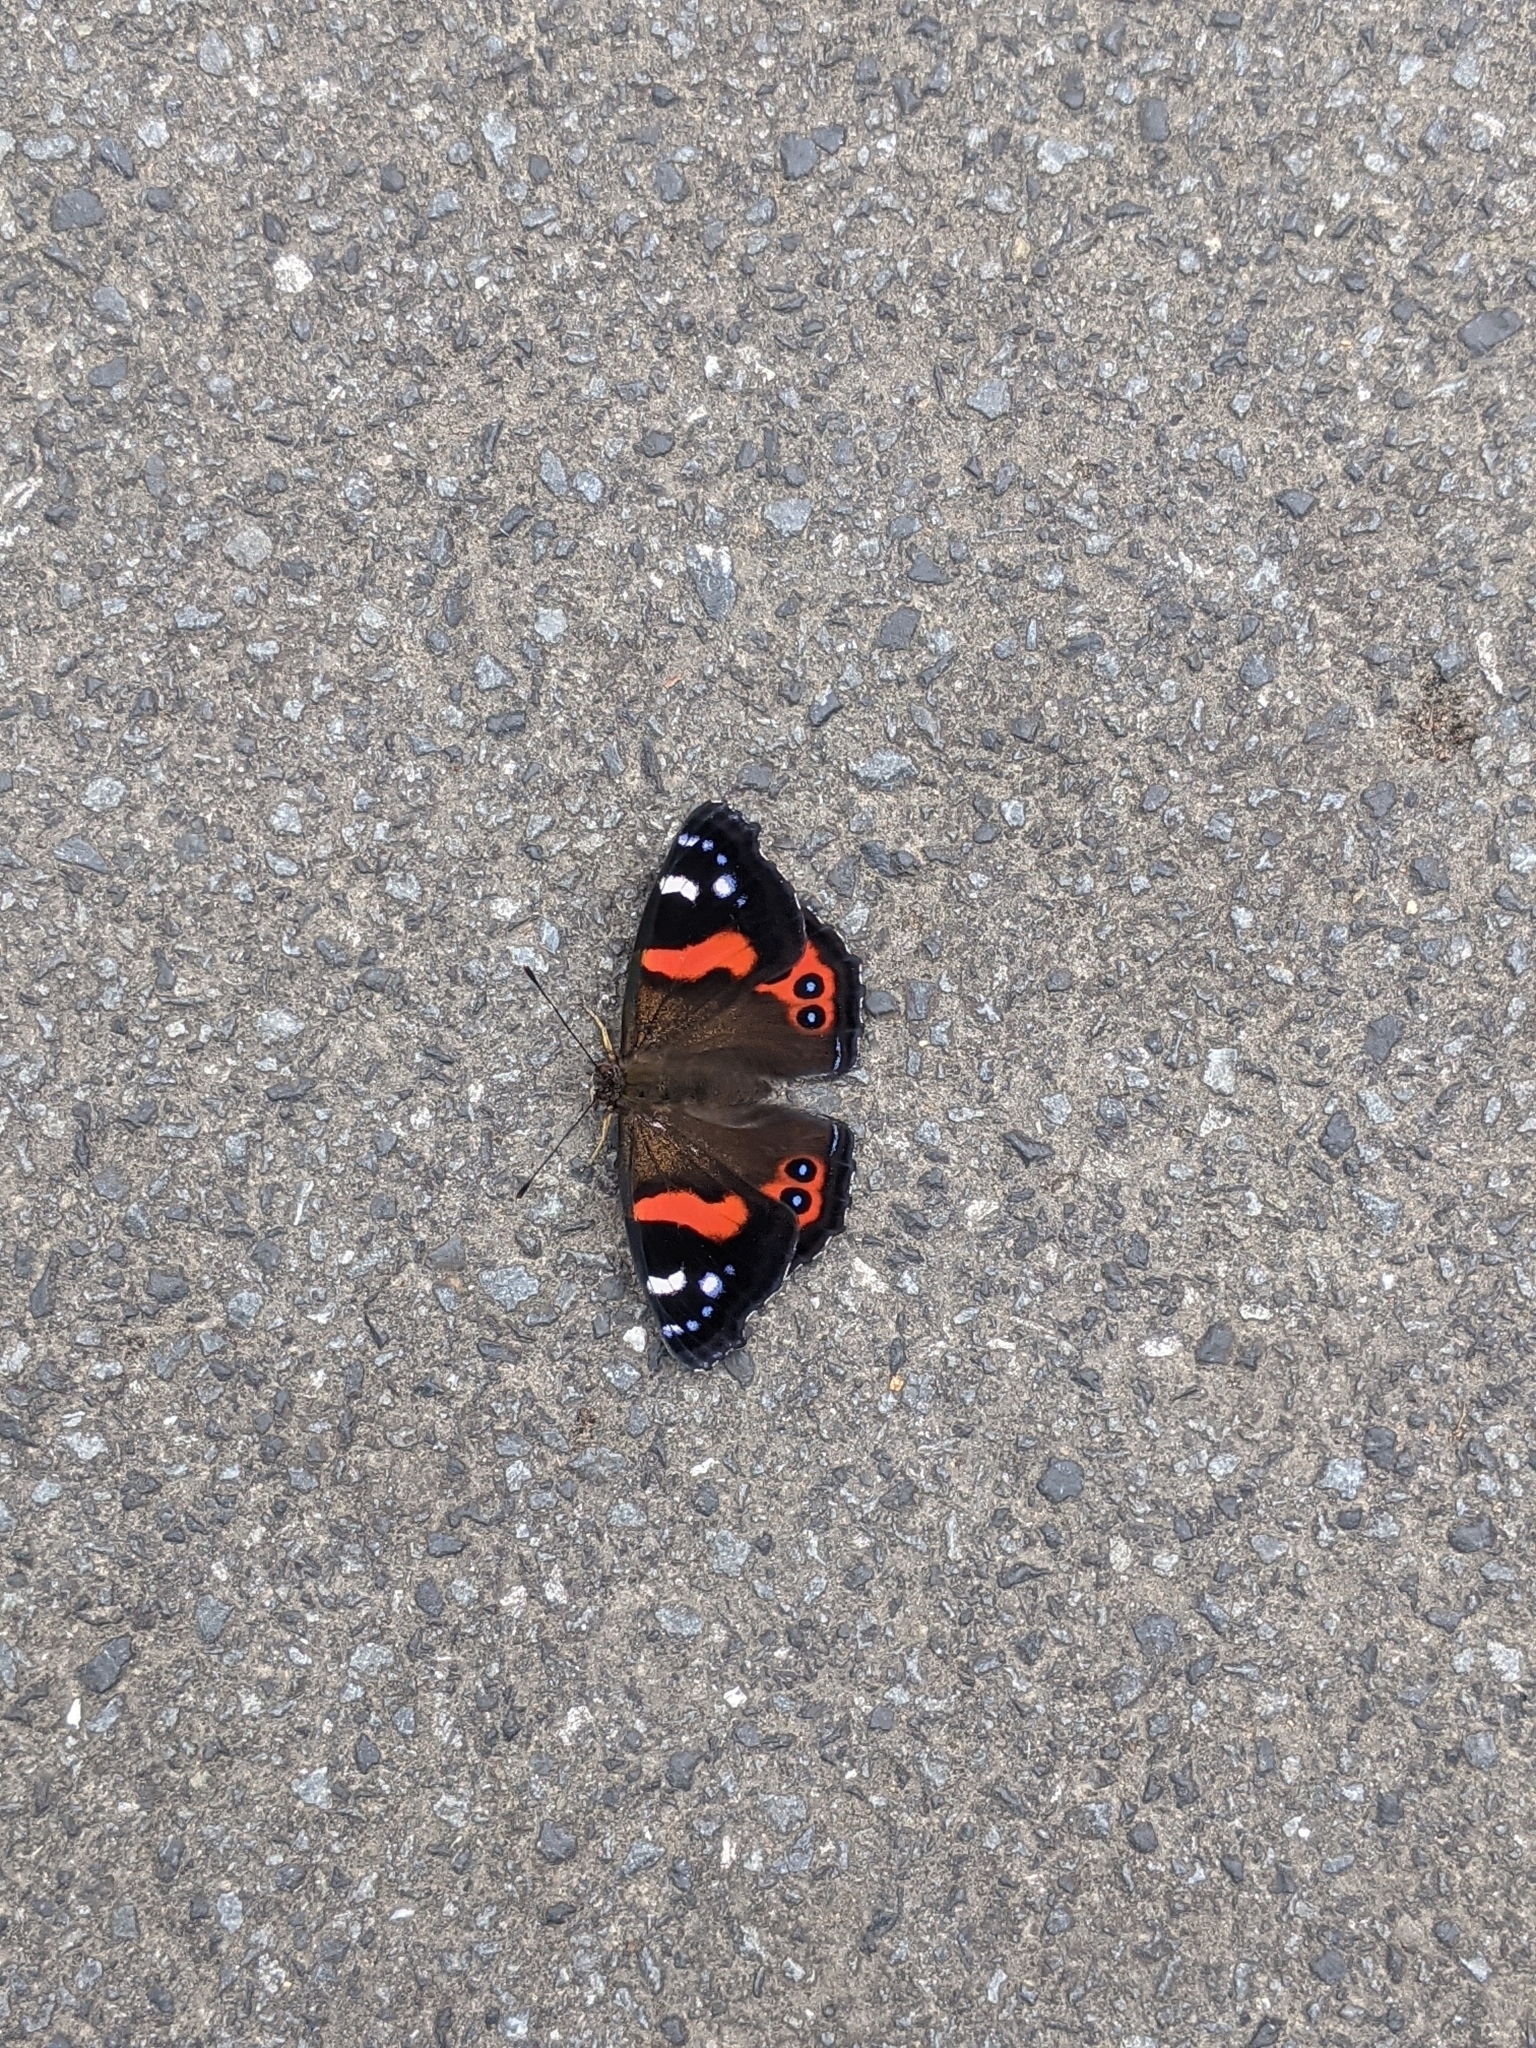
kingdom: Animalia
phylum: Arthropoda
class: Insecta
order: Lepidoptera
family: Nymphalidae
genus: Vanessa
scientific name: Vanessa gonerilla
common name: New zealand red admiral
